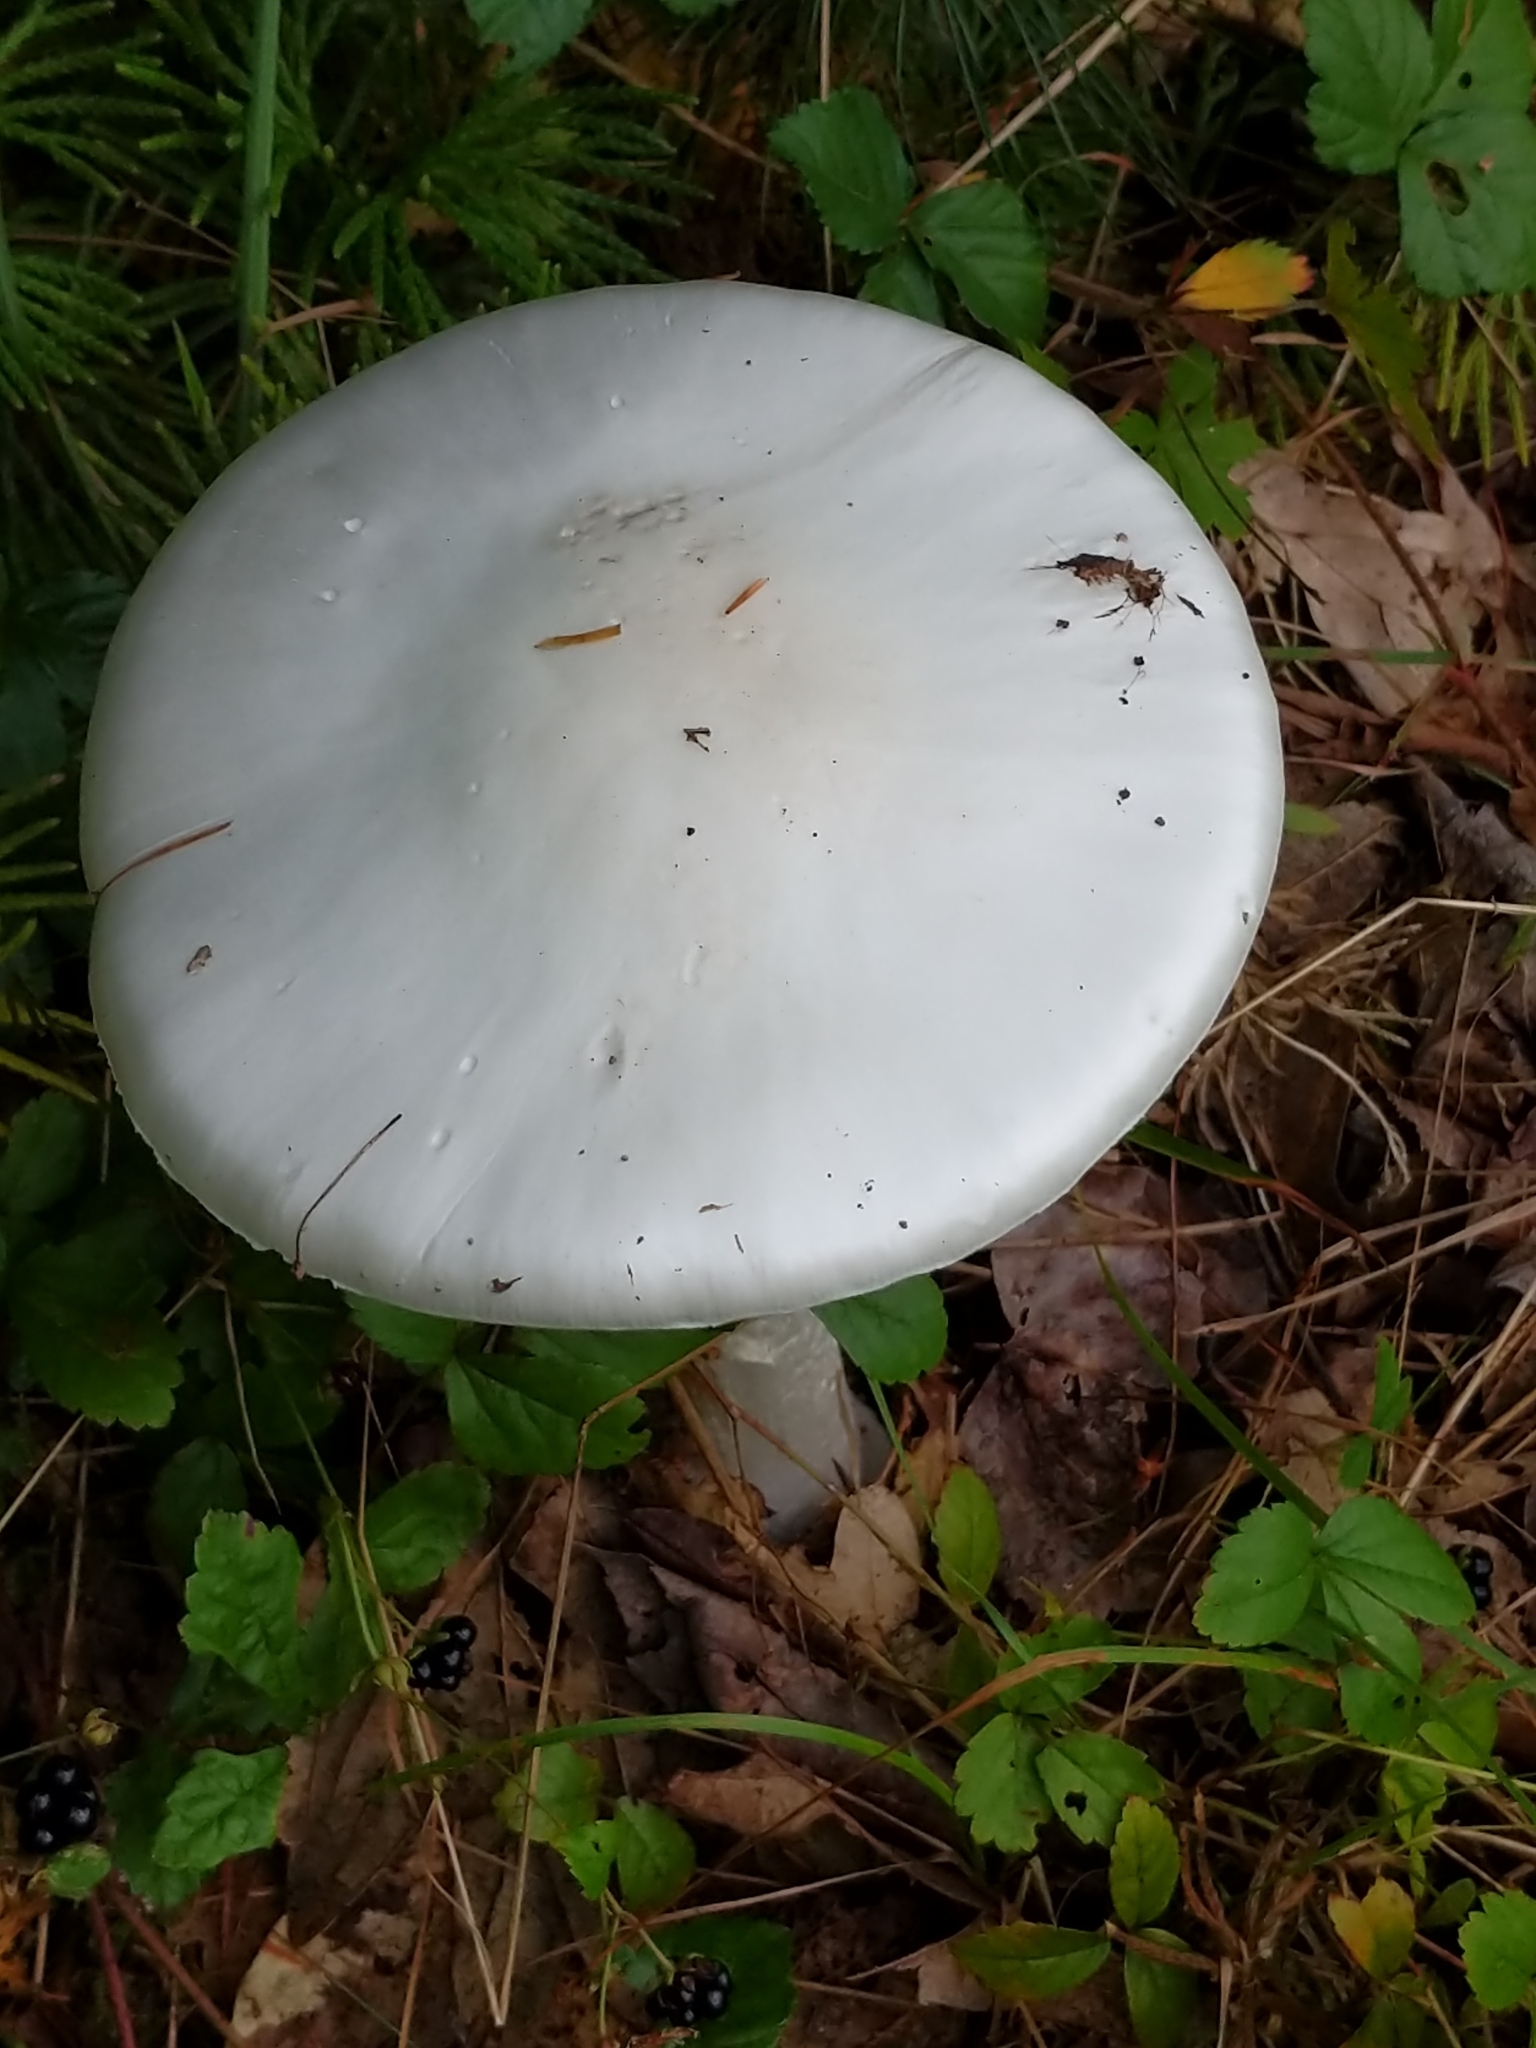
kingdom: Fungi
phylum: Basidiomycota
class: Agaricomycetes
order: Agaricales
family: Amanitaceae
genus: Amanita
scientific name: Amanita bisporigera
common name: Eastern north american destroying angel
